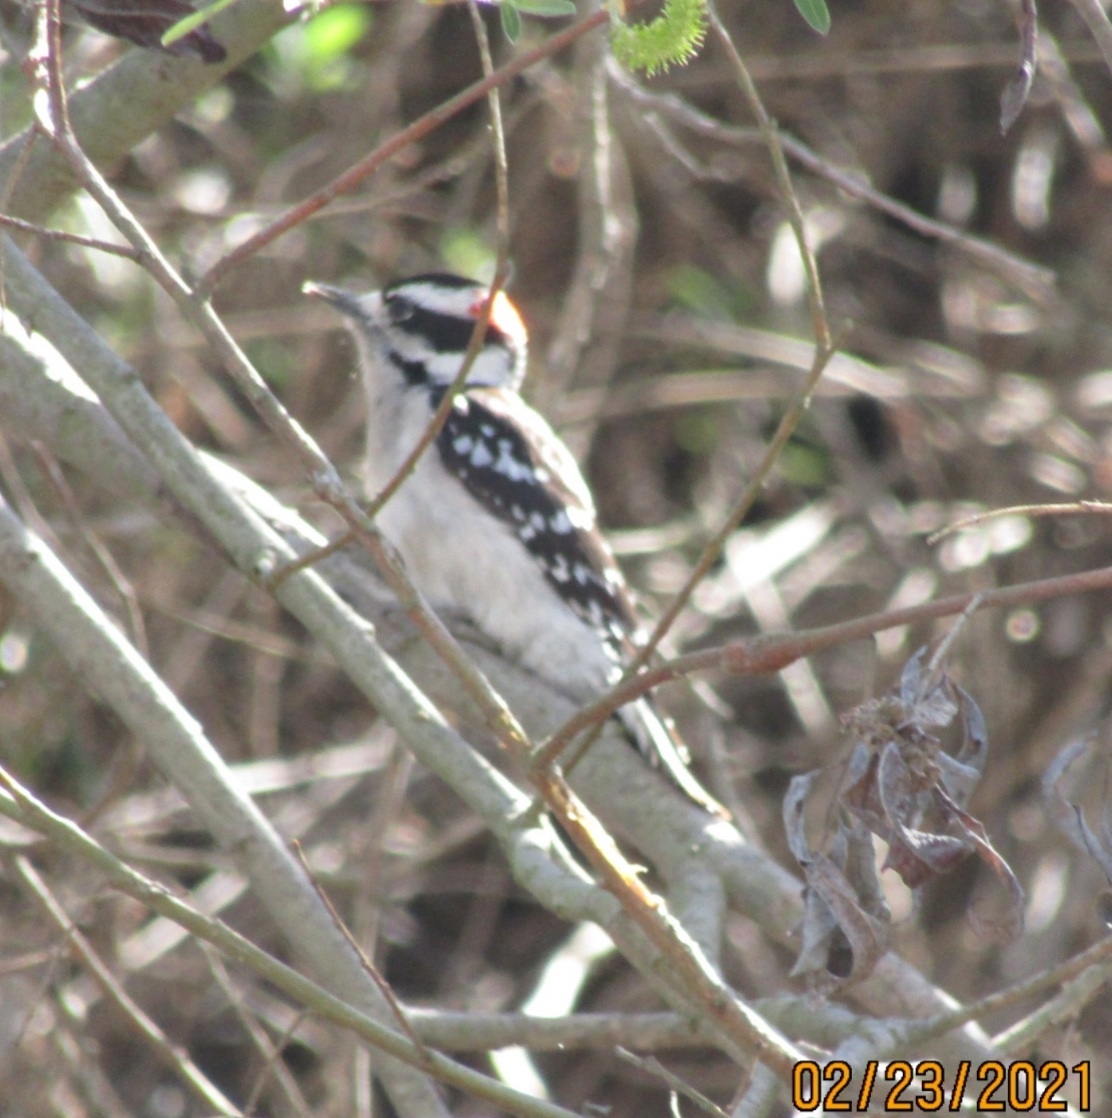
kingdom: Animalia
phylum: Chordata
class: Aves
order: Piciformes
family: Picidae
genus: Dryobates
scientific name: Dryobates pubescens
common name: Downy woodpecker
